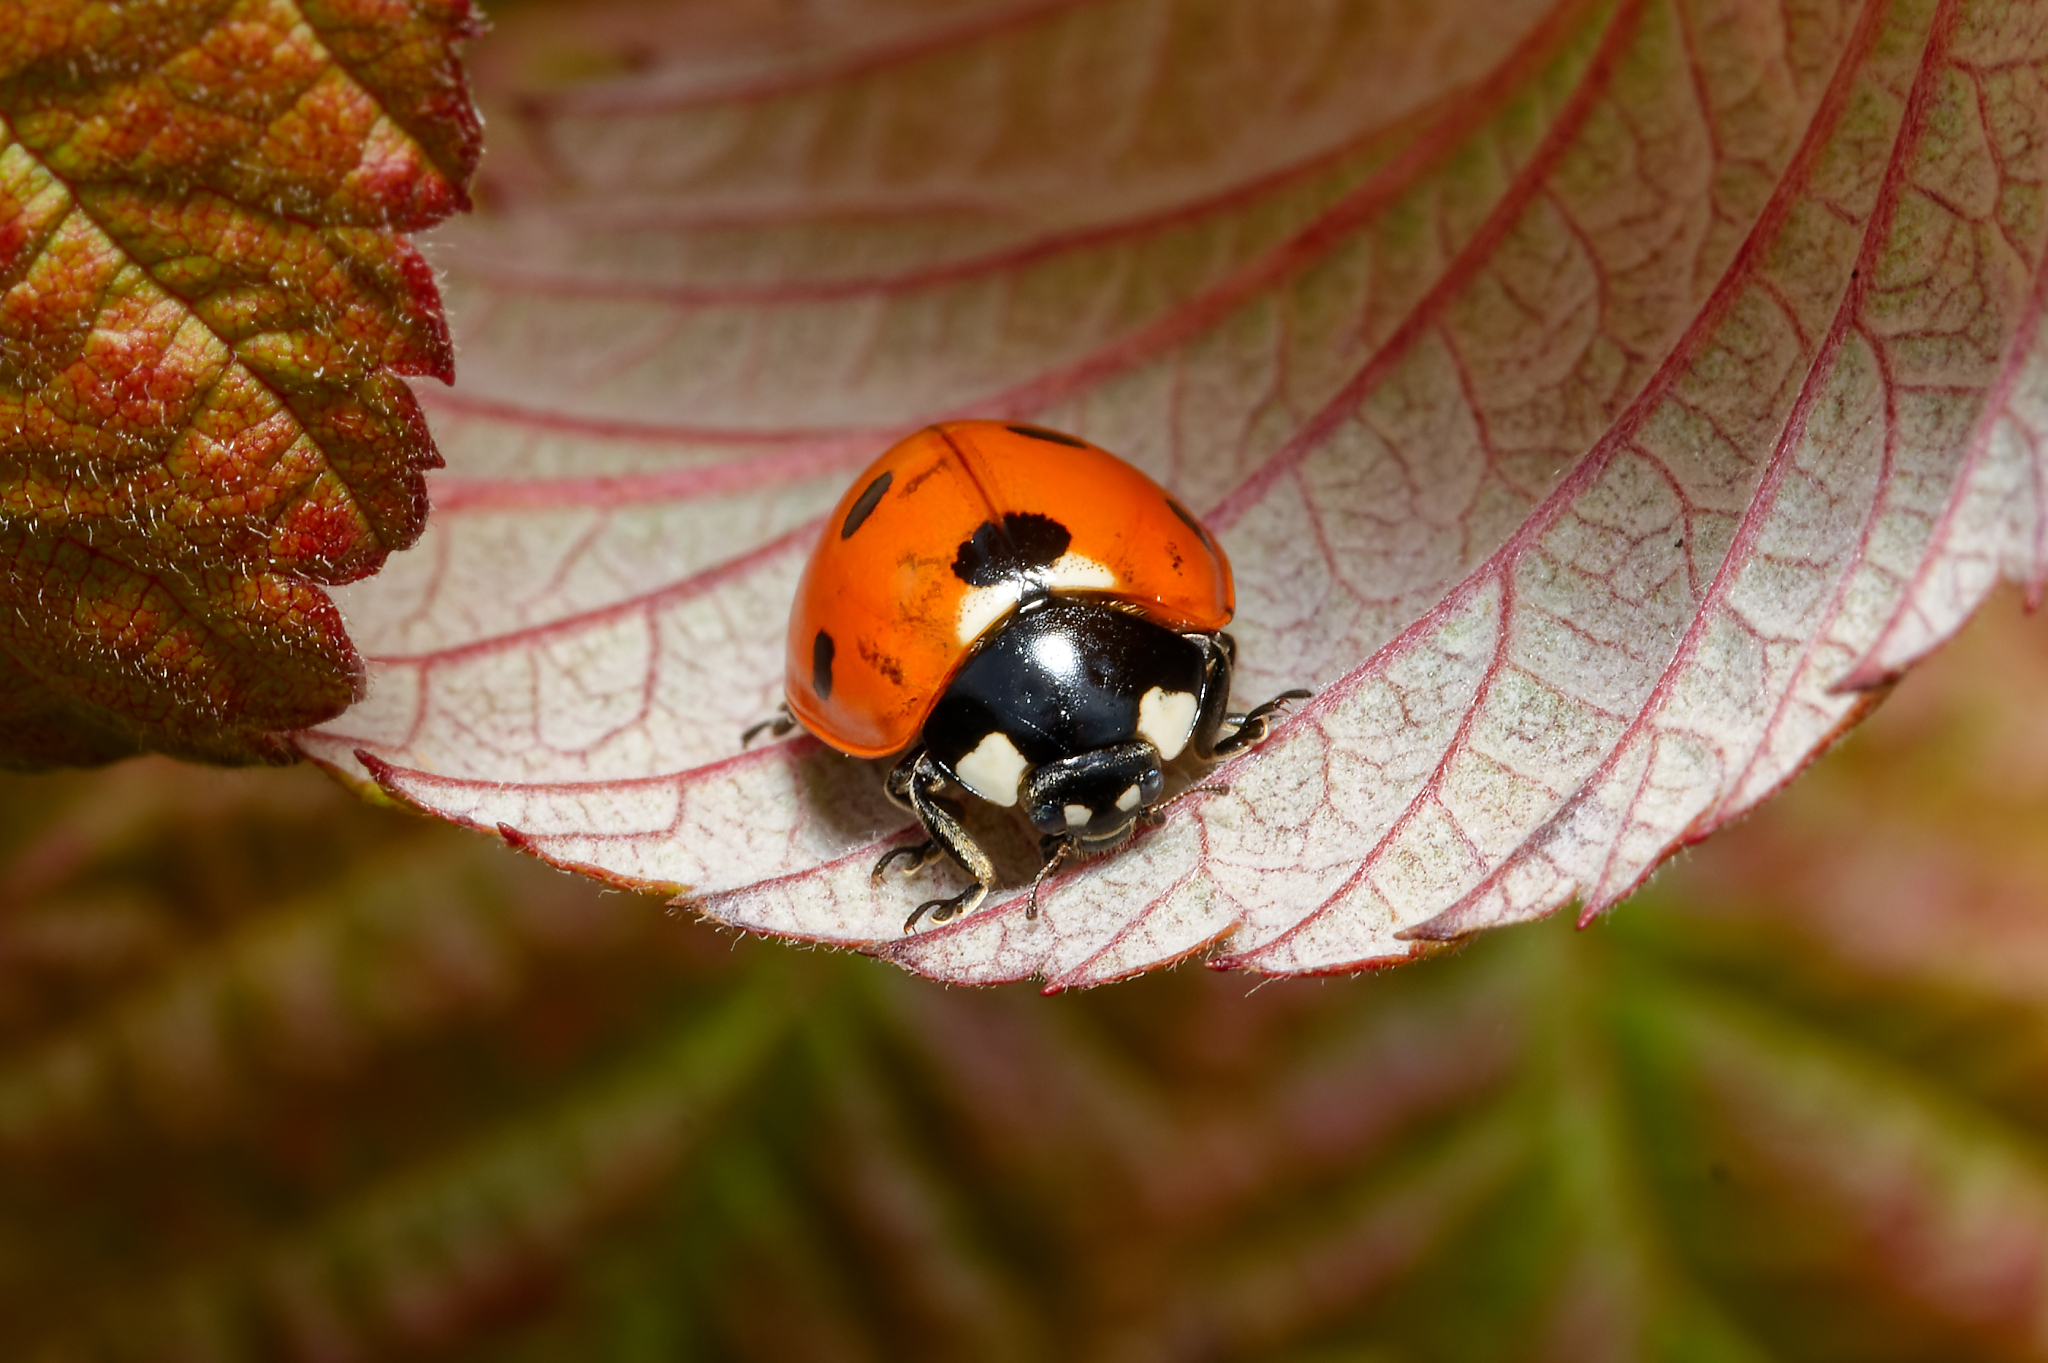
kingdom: Animalia
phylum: Arthropoda
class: Insecta
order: Coleoptera
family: Coccinellidae
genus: Coccinella
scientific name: Coccinella septempunctata
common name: Sevenspotted lady beetle
